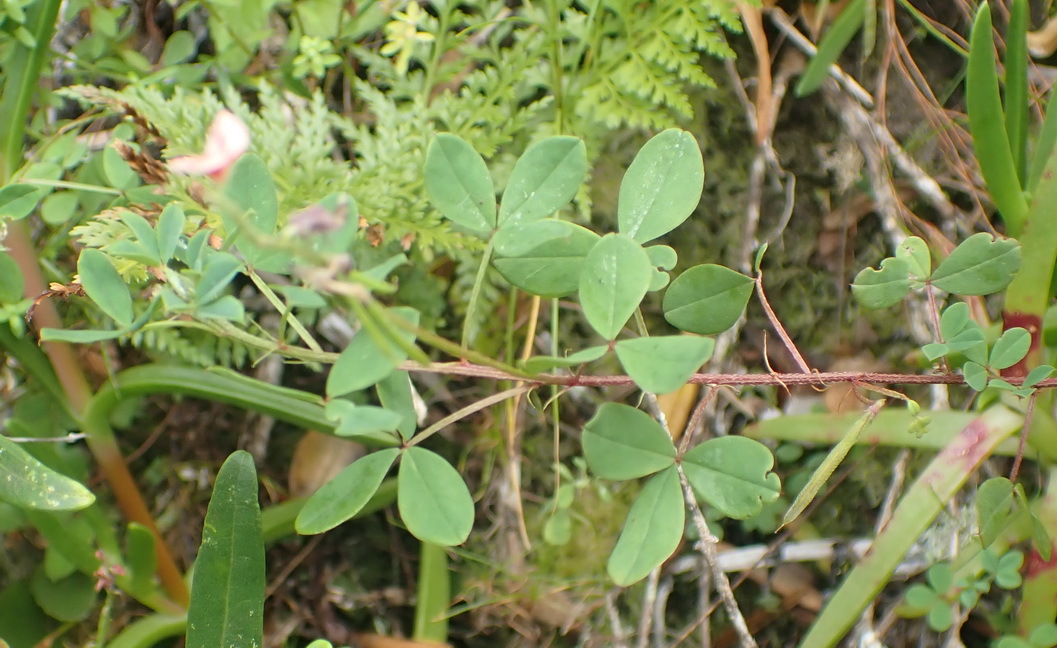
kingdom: Plantae
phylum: Tracheophyta
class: Magnoliopsida
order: Fabales
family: Fabaceae
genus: Indigofera
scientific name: Indigofera erecta
